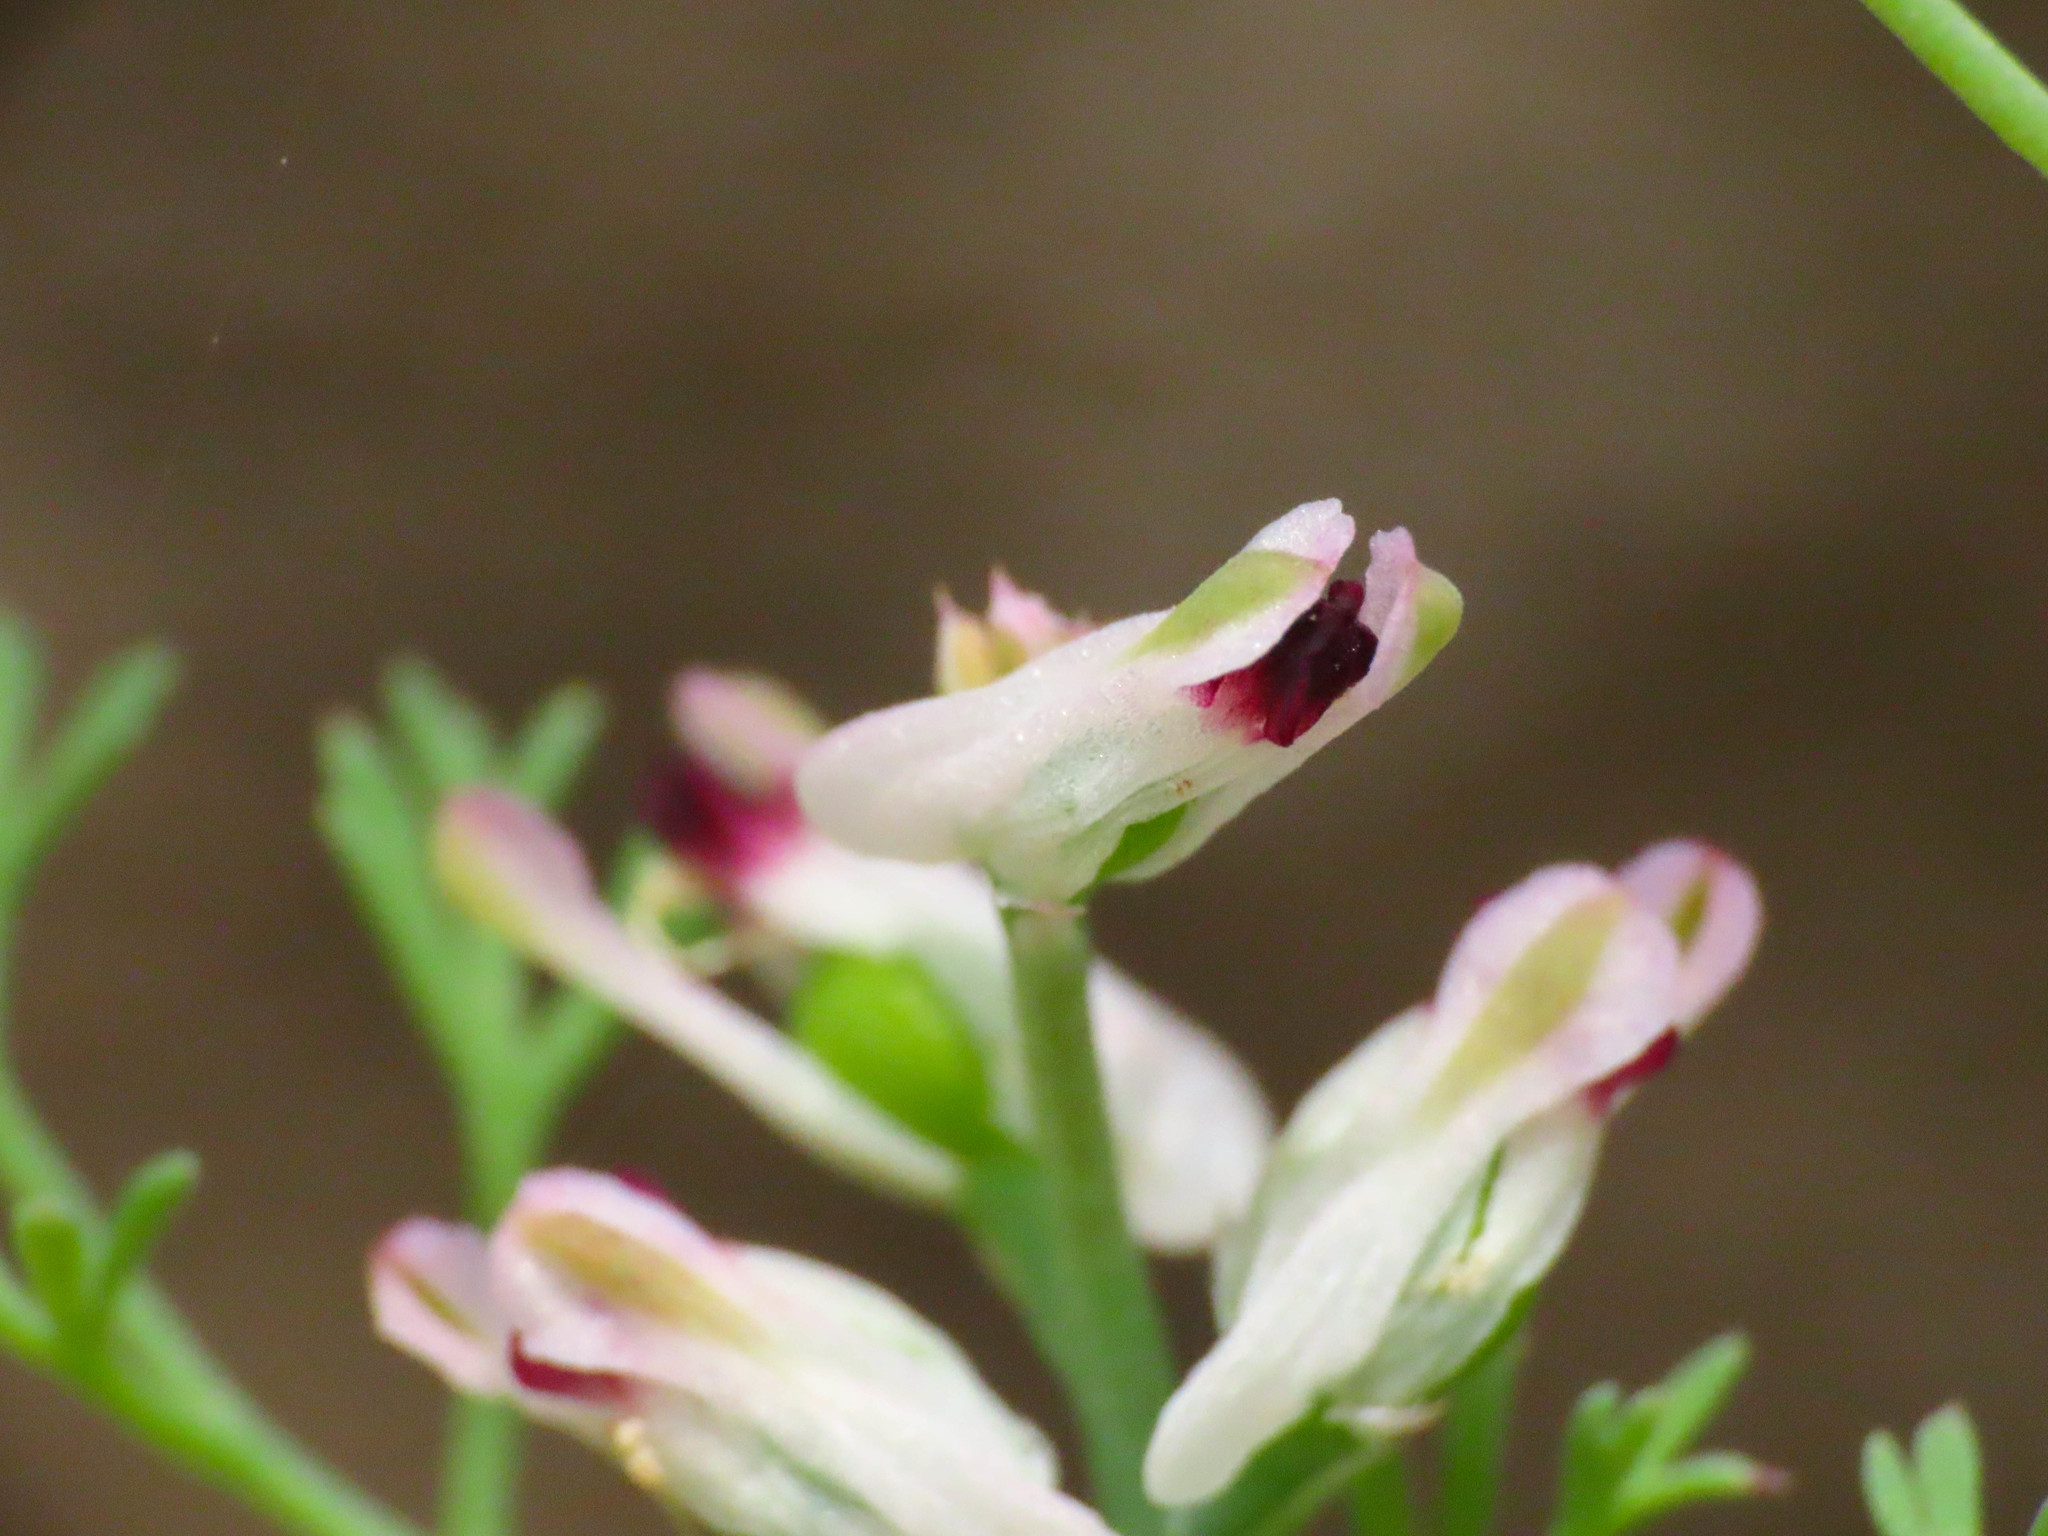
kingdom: Plantae
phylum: Tracheophyta
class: Magnoliopsida
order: Ranunculales
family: Papaveraceae
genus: Fumaria
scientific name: Fumaria parviflora
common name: Fine-leaved fumitory
